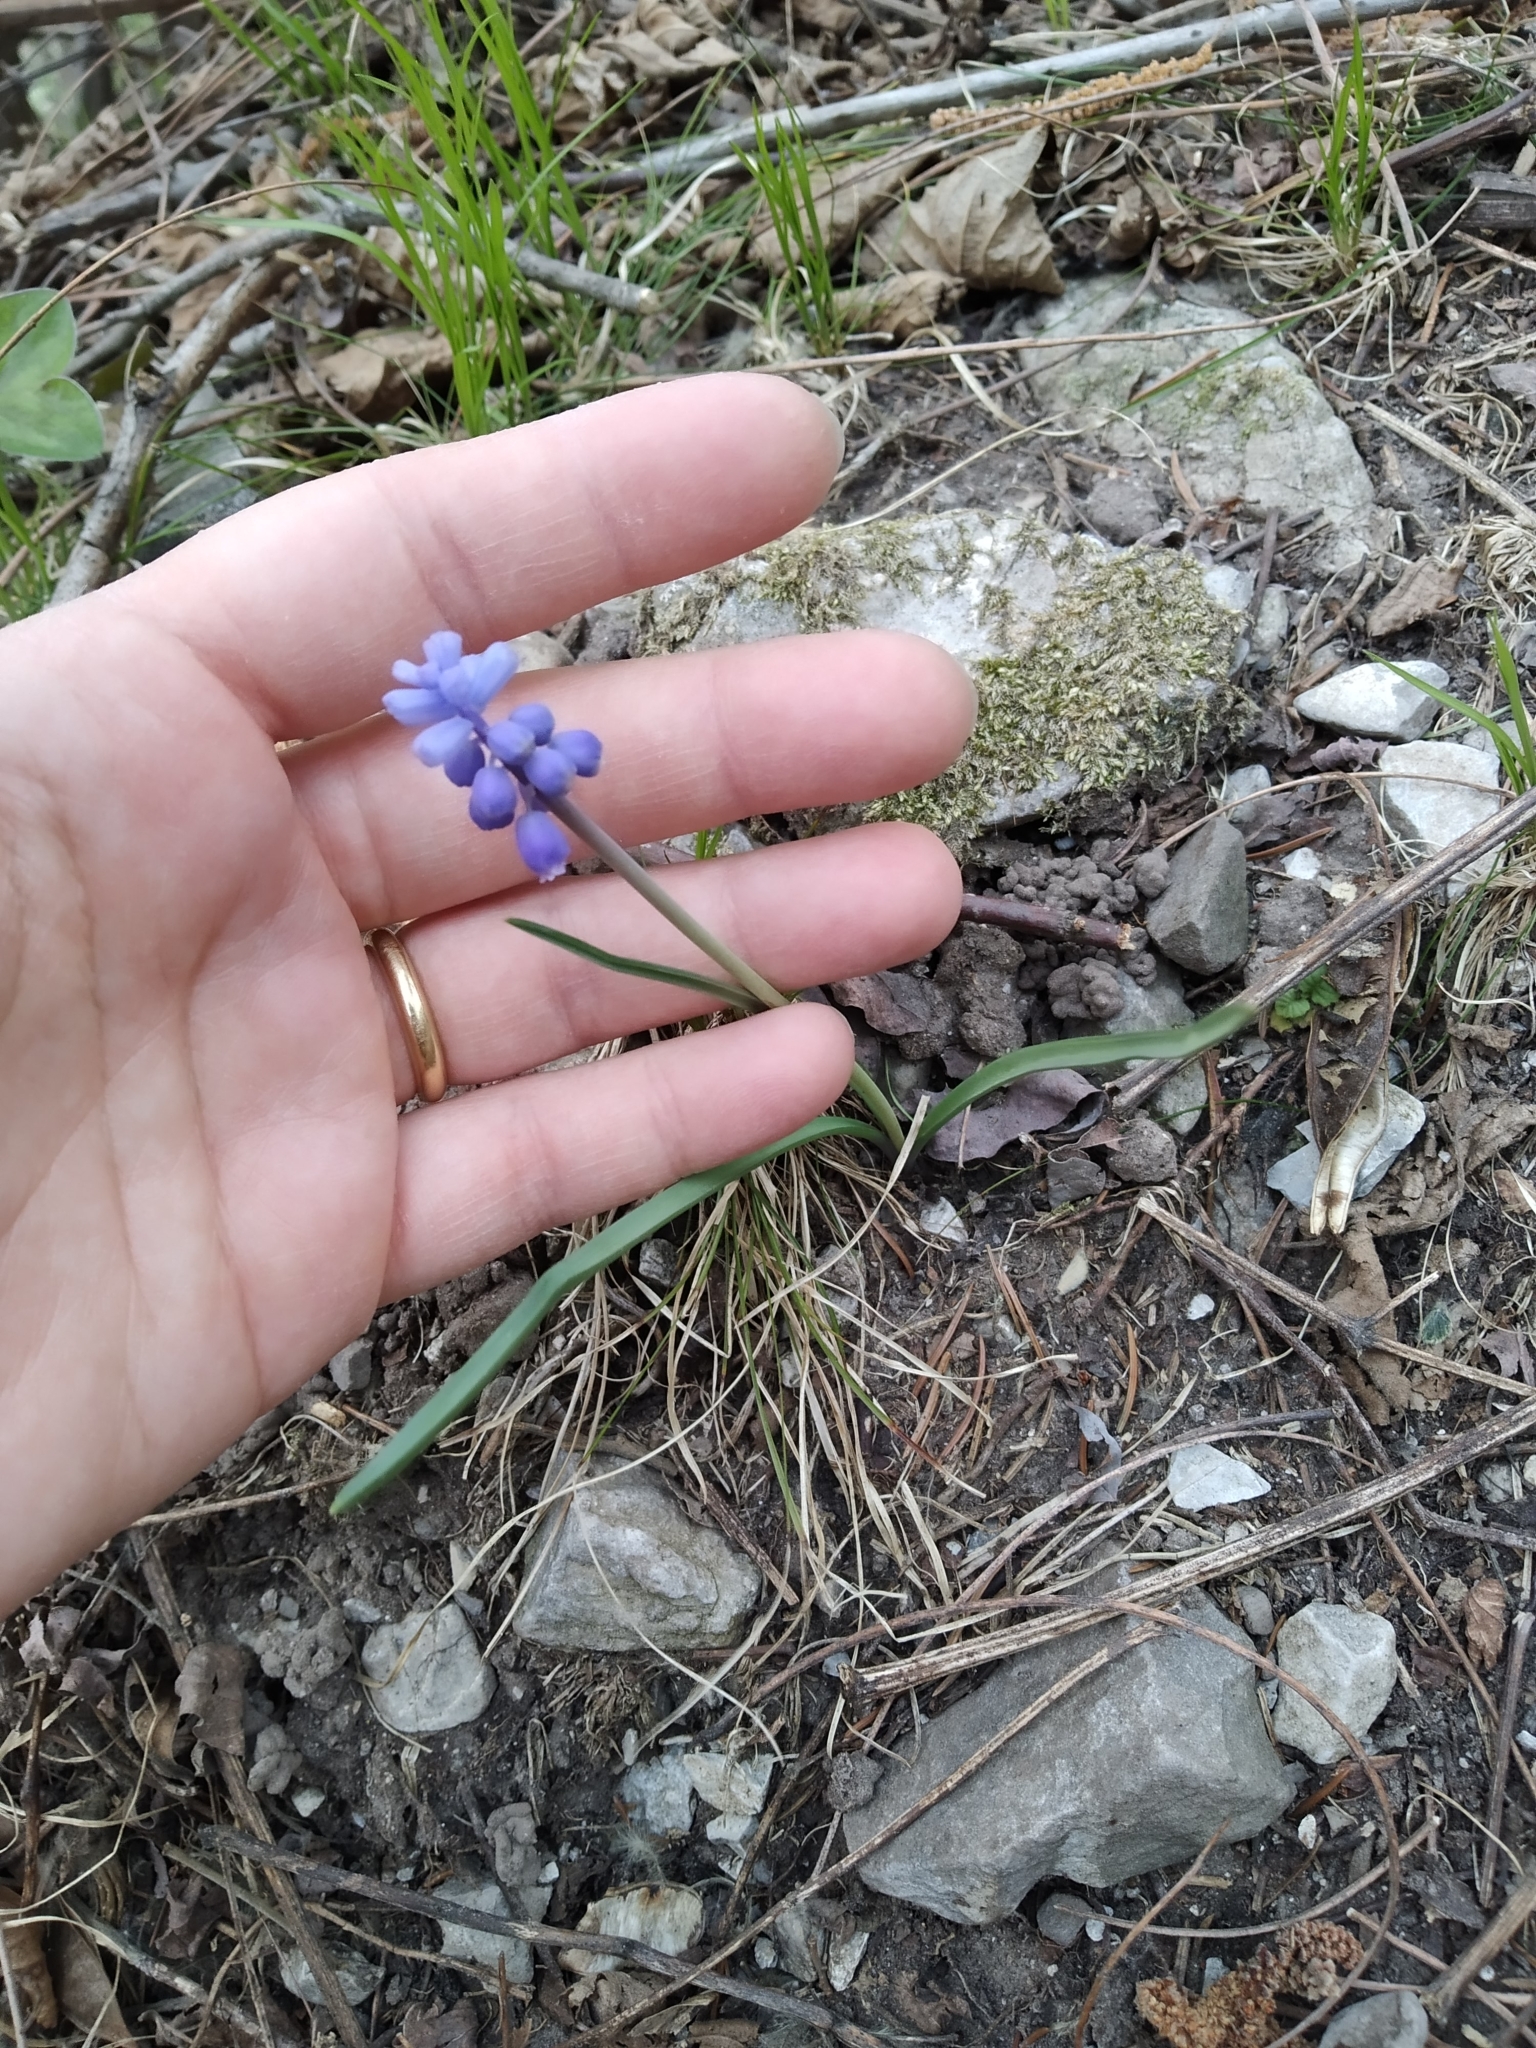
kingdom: Plantae
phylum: Tracheophyta
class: Liliopsida
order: Asparagales
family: Asparagaceae
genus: Muscari
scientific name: Muscari botryoides
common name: Compact grape-hyacinth
